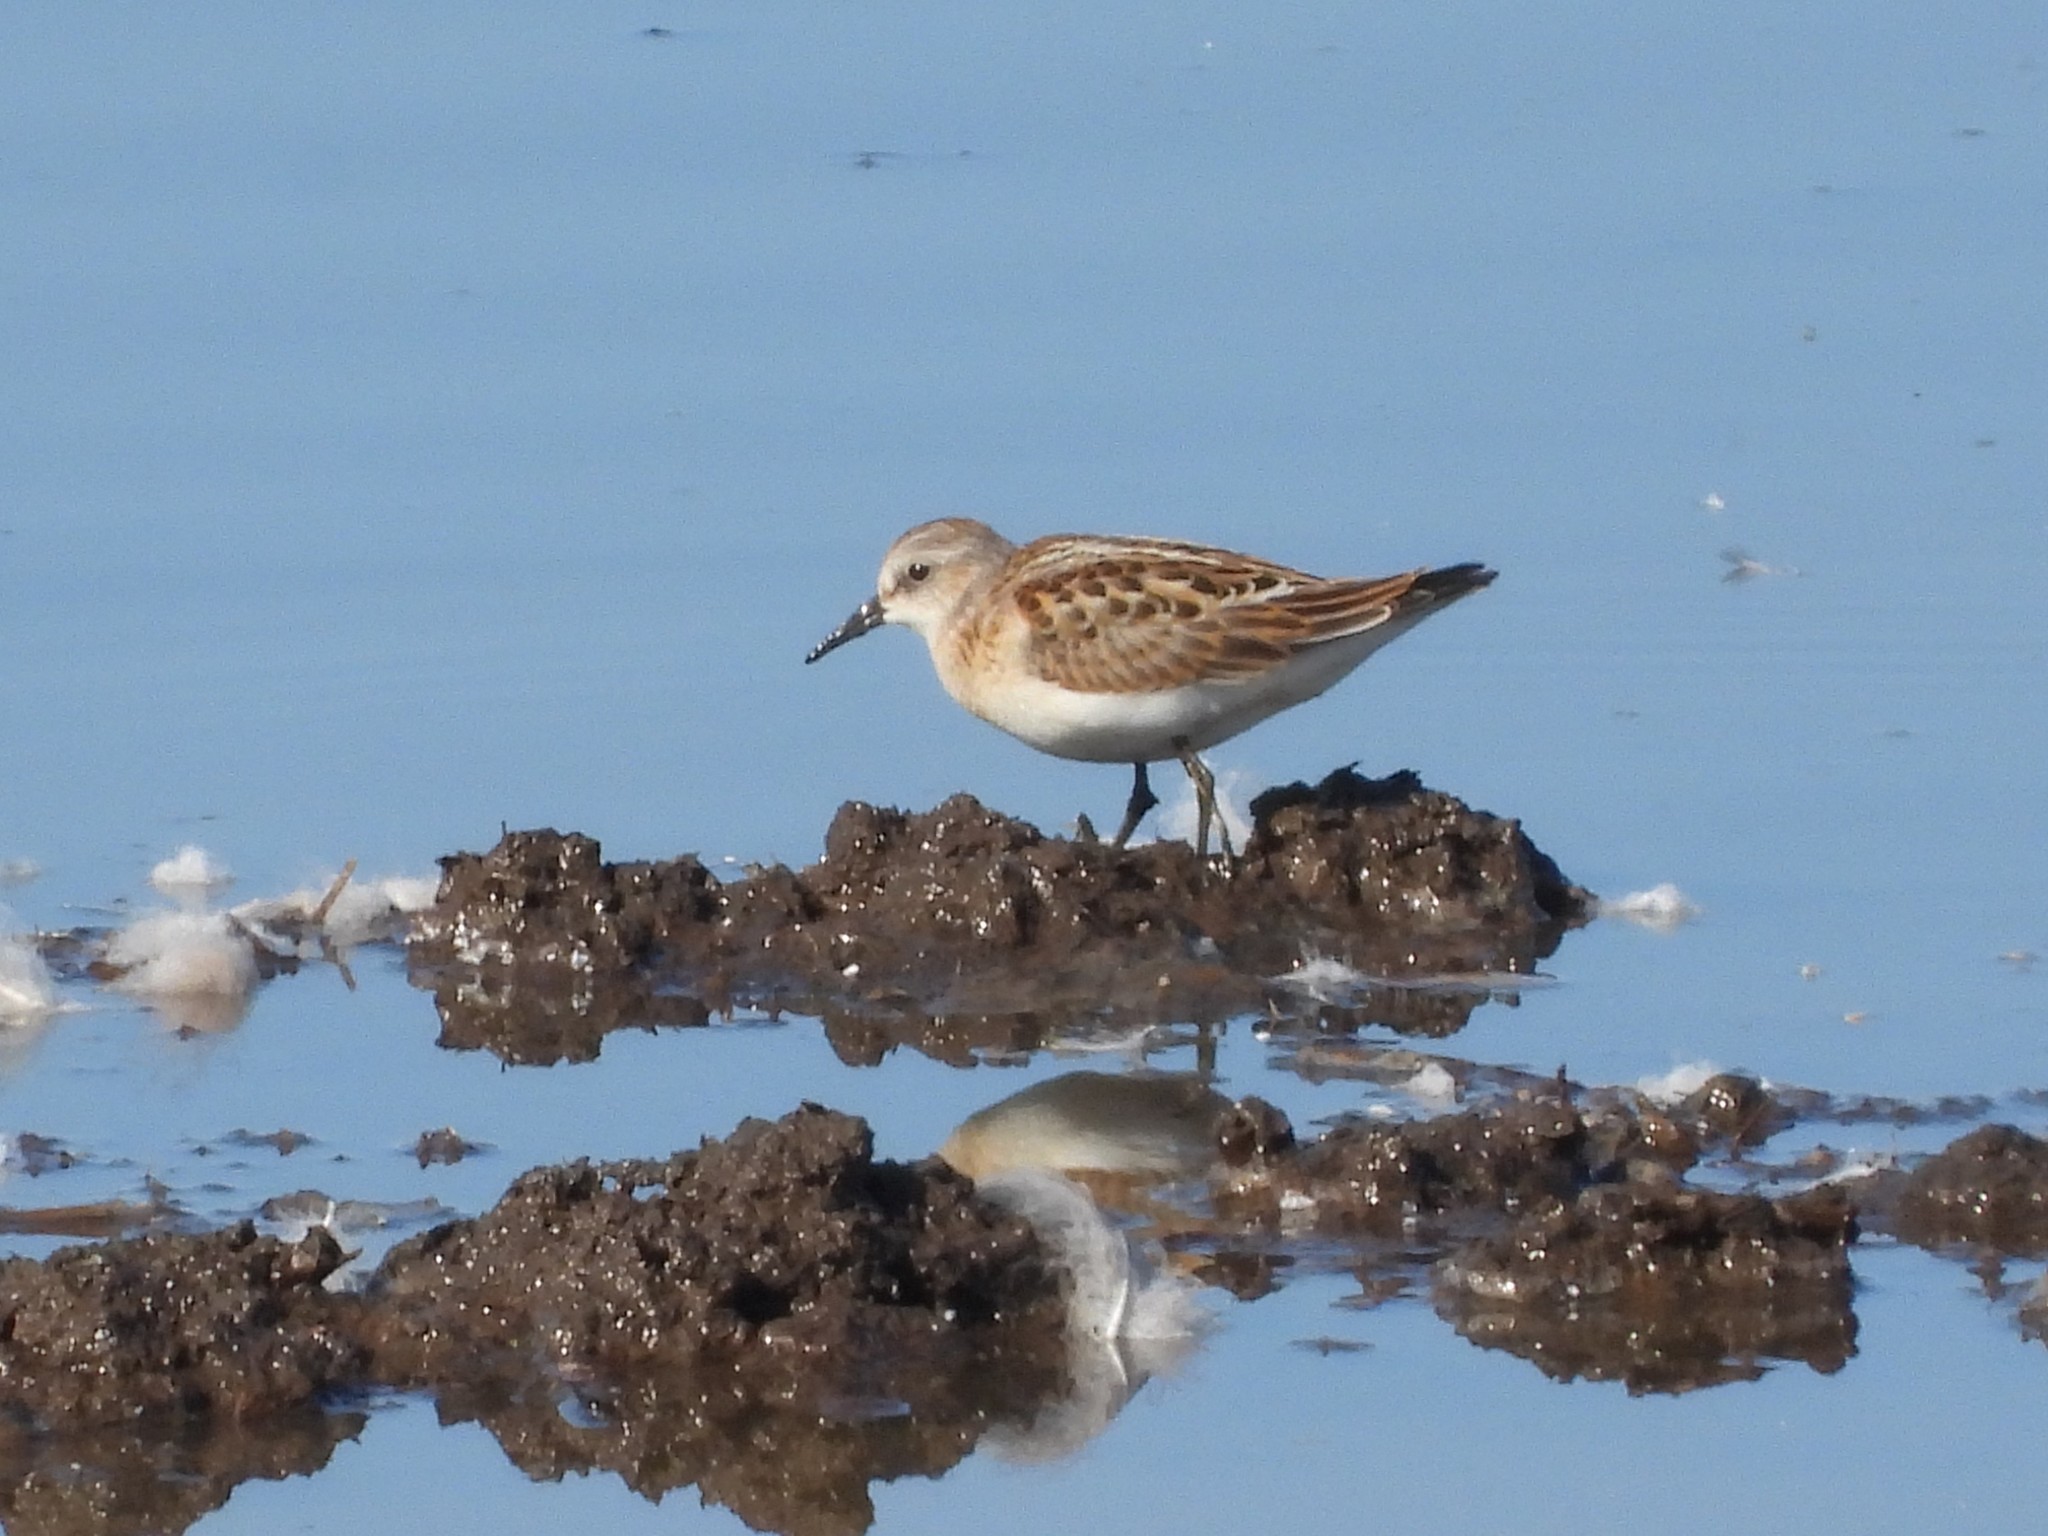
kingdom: Animalia
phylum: Chordata
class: Aves
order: Charadriiformes
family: Scolopacidae
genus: Calidris
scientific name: Calidris minuta
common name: Little stint
